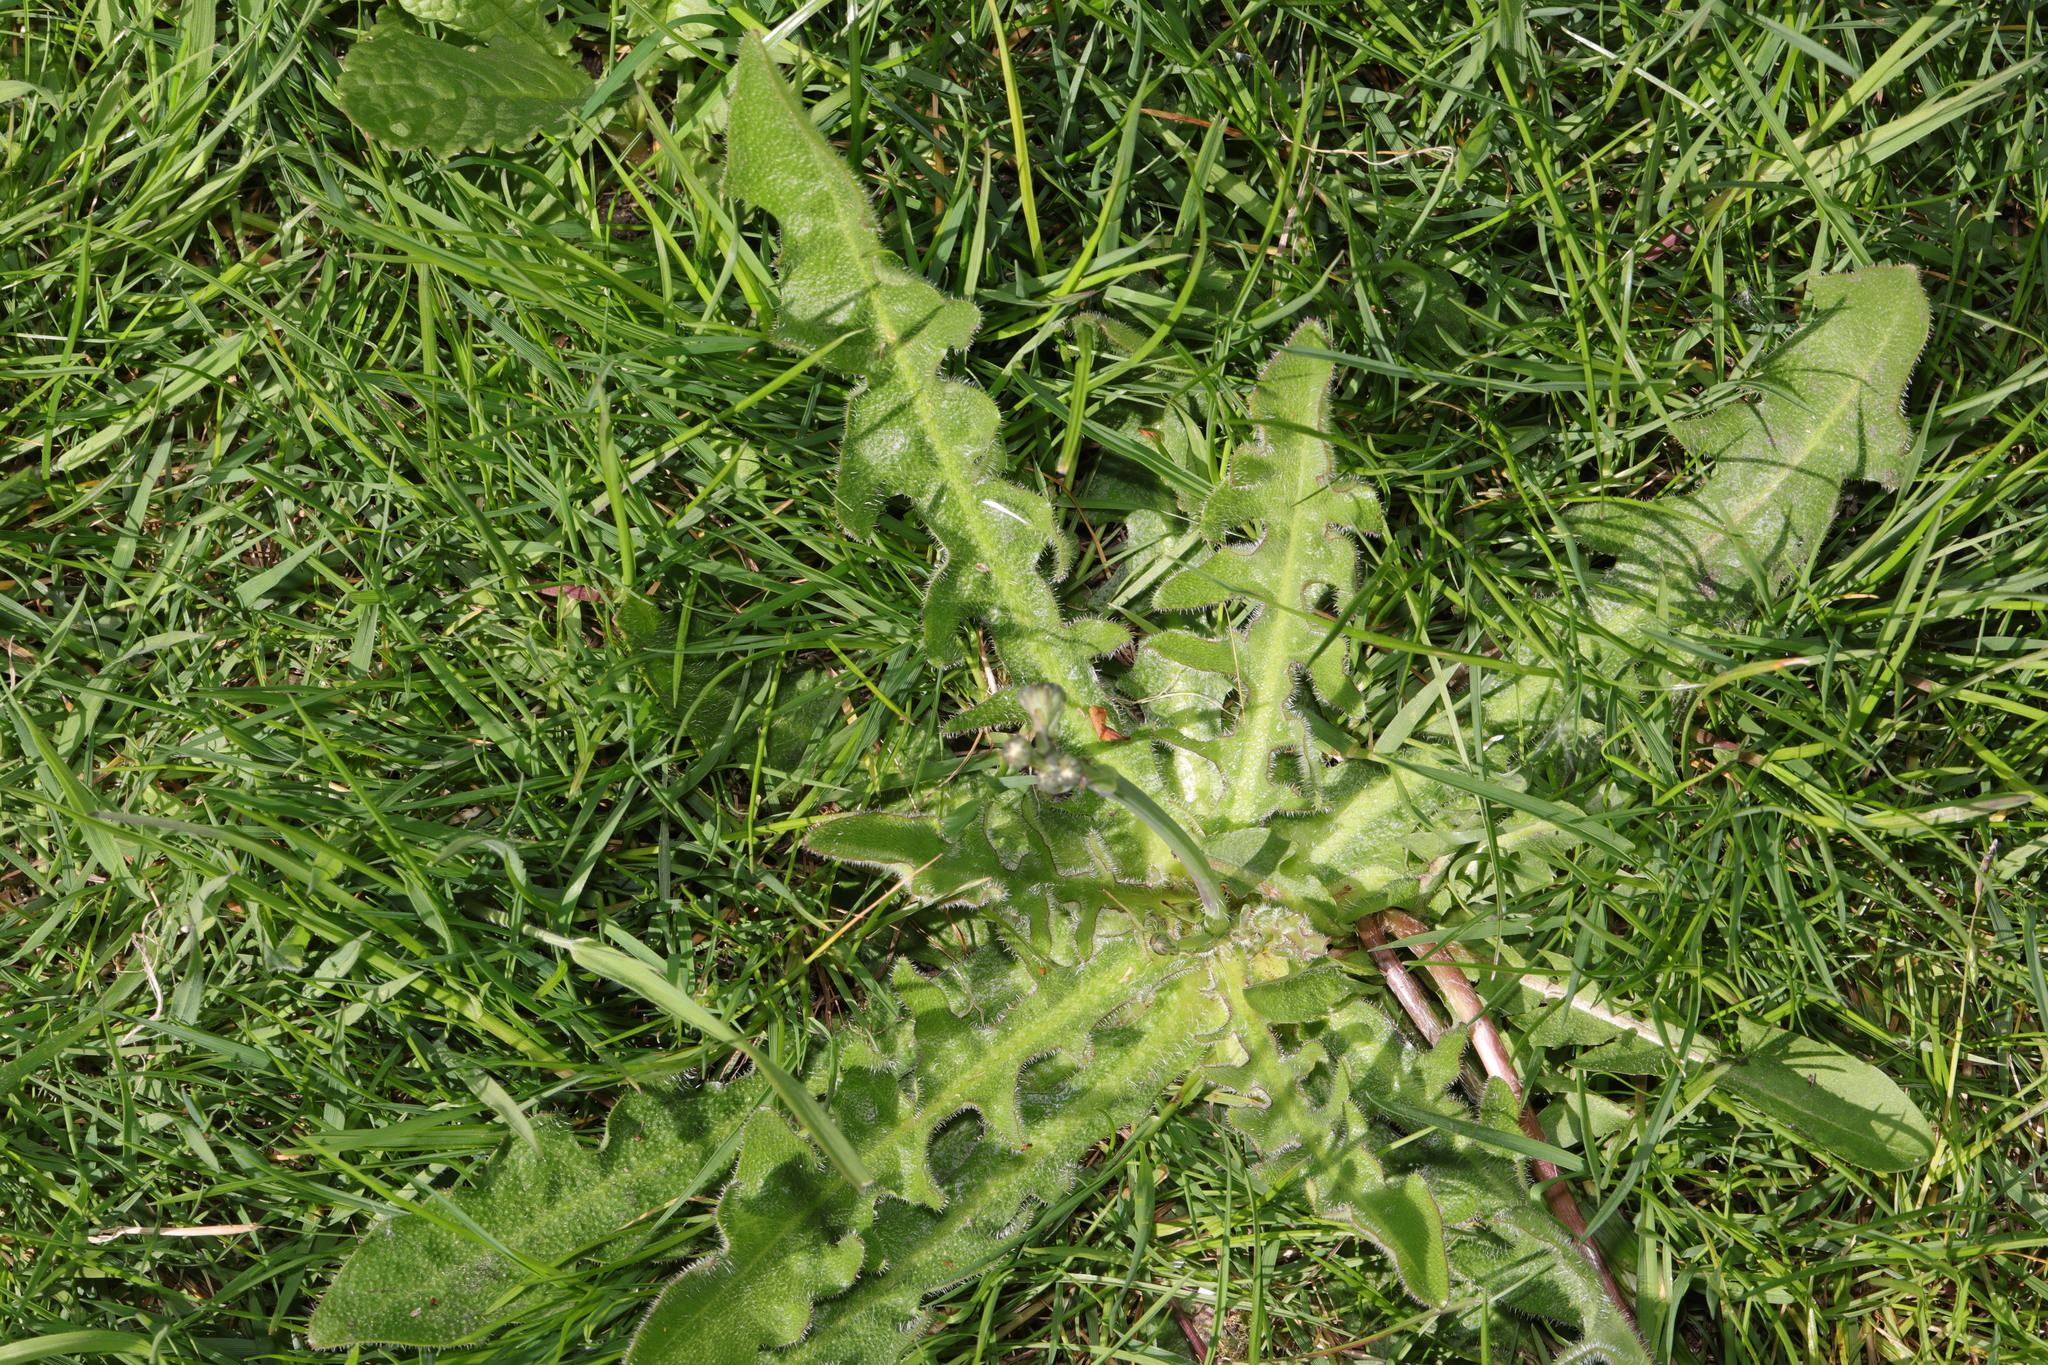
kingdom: Plantae
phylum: Tracheophyta
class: Magnoliopsida
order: Asterales
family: Asteraceae
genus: Hypochaeris
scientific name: Hypochaeris radicata
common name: Flatweed
